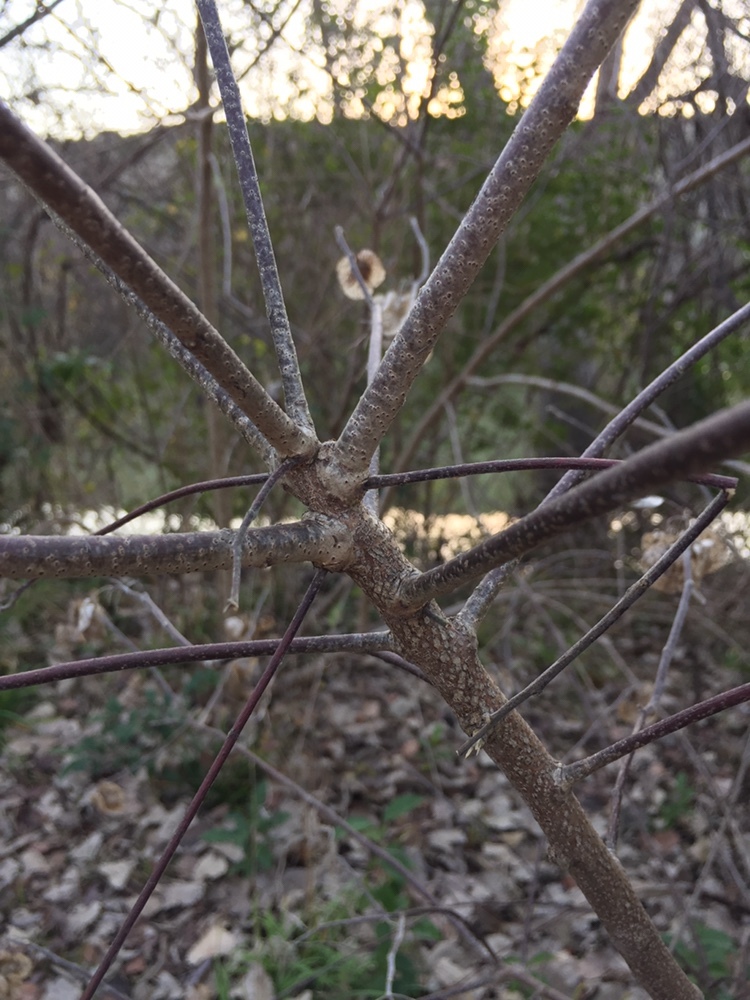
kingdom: Plantae
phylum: Tracheophyta
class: Magnoliopsida
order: Sapindales
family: Rutaceae
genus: Ptelea
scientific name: Ptelea trifoliata
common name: Common hop-tree
